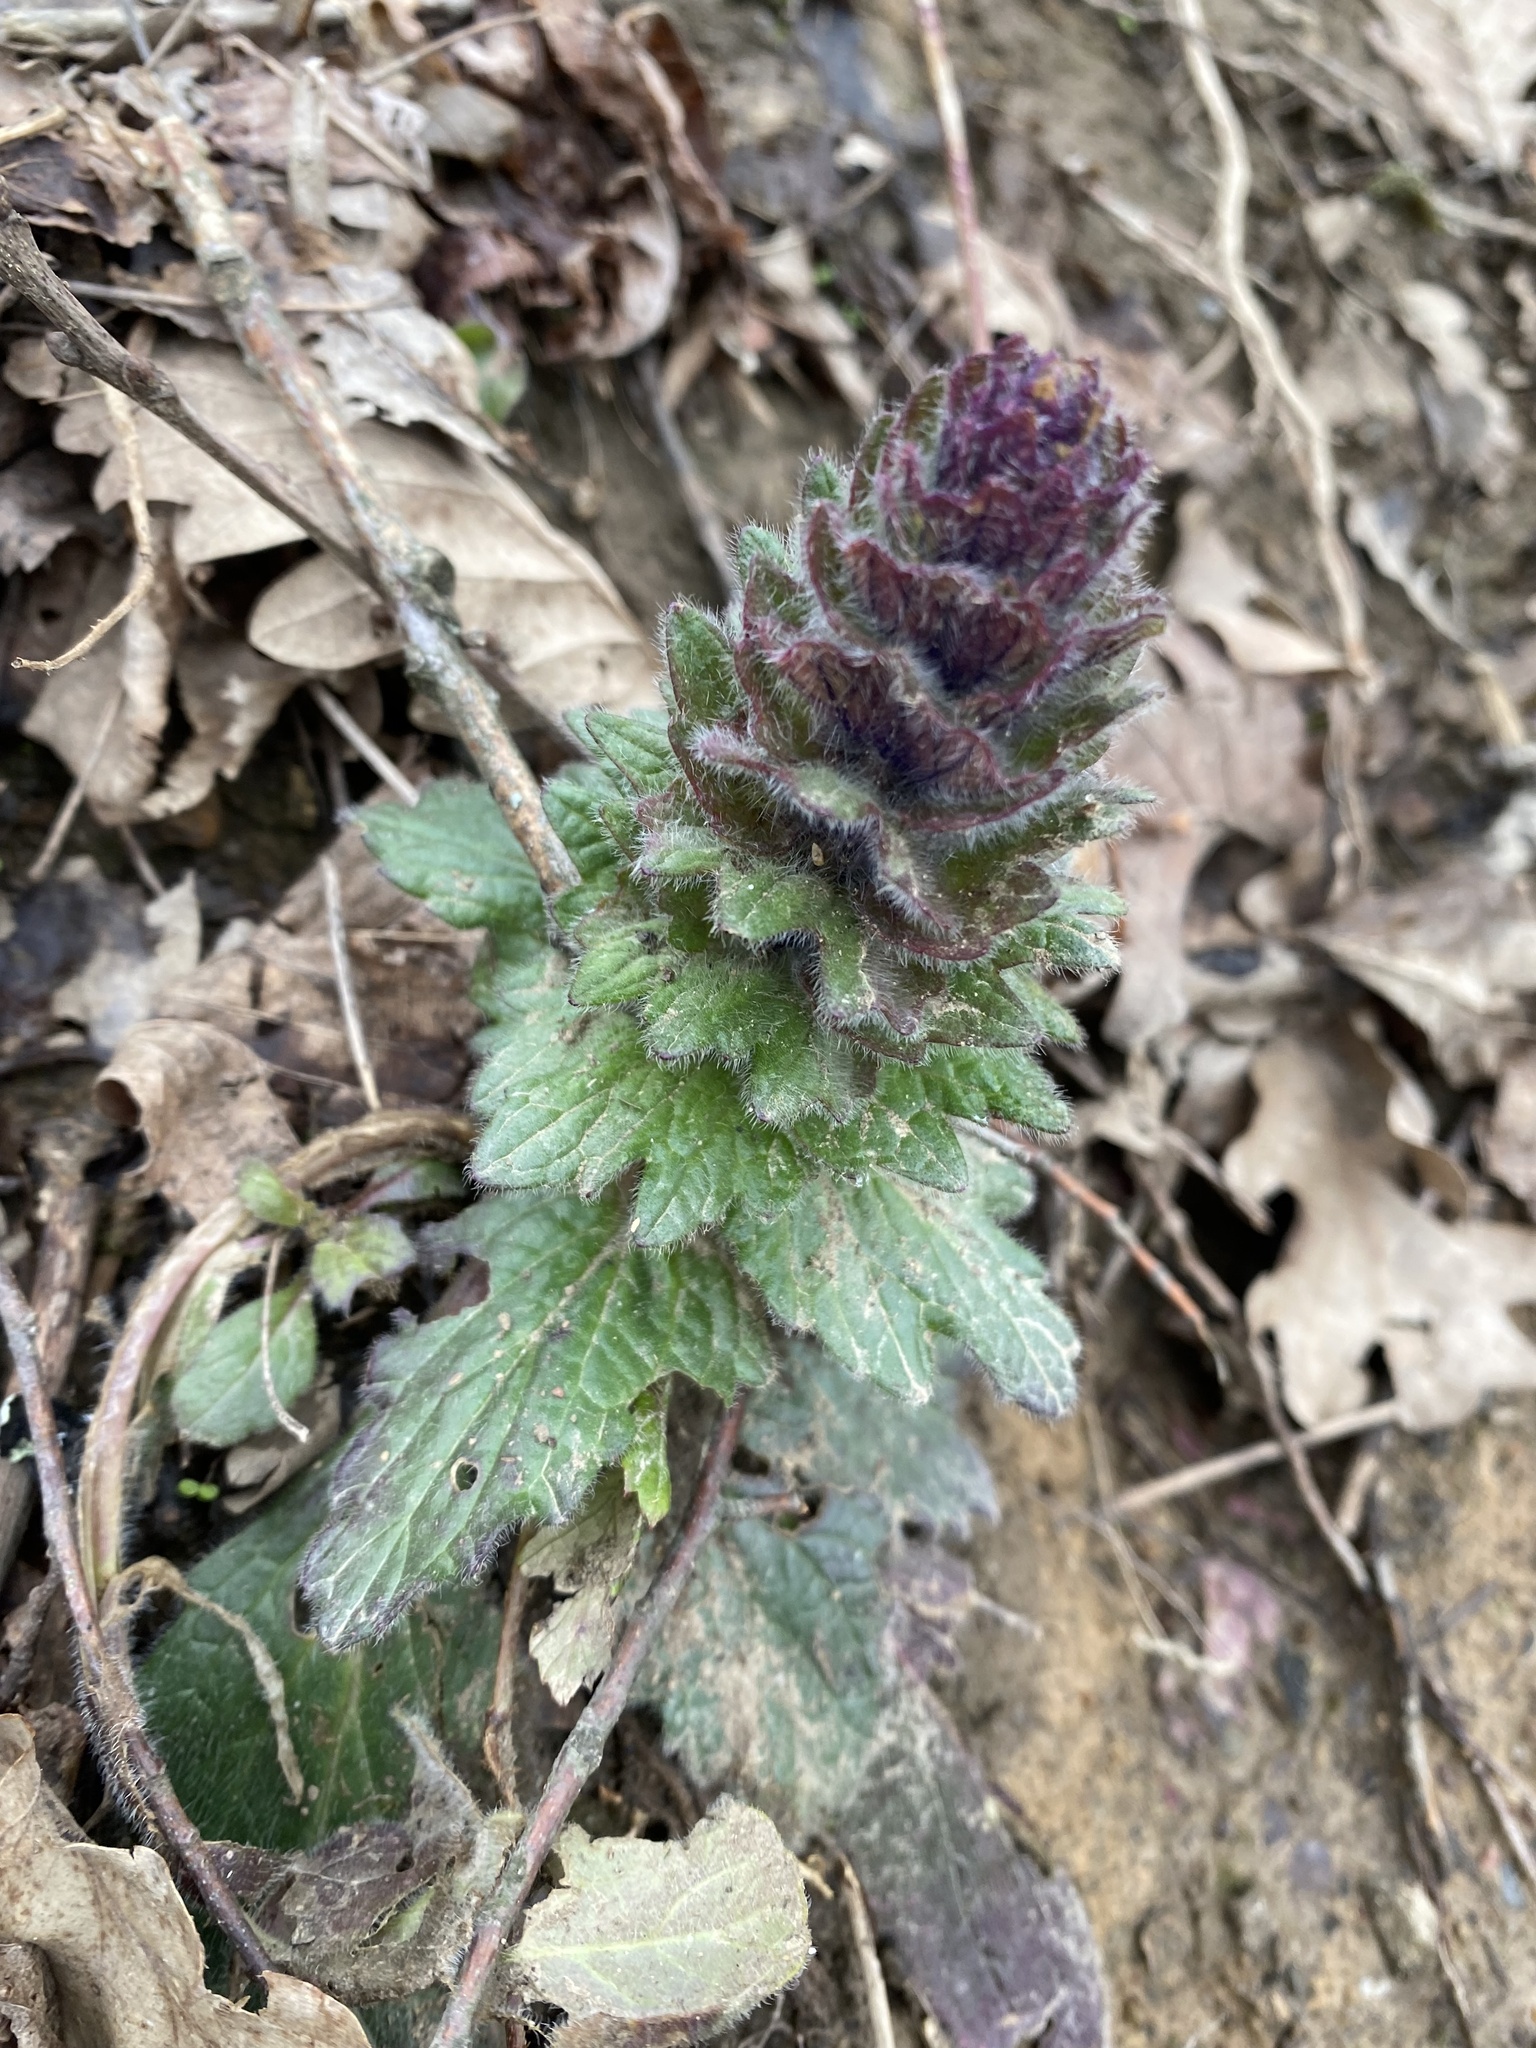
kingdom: Plantae
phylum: Tracheophyta
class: Magnoliopsida
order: Lamiales
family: Lamiaceae
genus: Ajuga
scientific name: Ajuga orientalis
